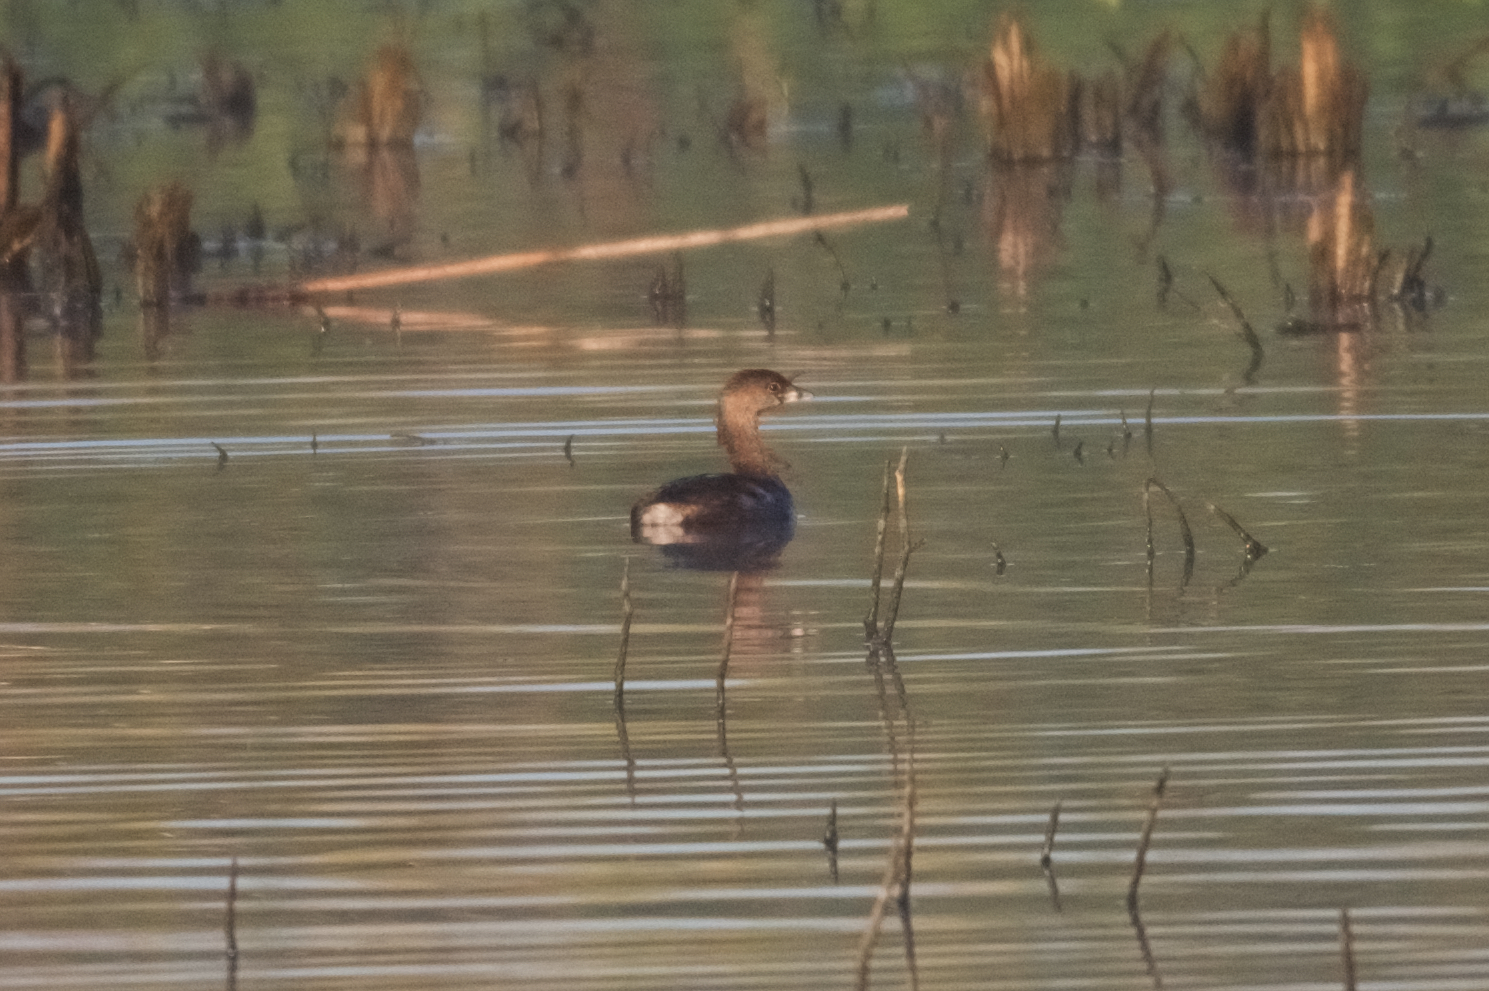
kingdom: Animalia
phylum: Chordata
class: Aves
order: Podicipediformes
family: Podicipedidae
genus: Podilymbus
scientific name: Podilymbus podiceps
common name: Pied-billed grebe
